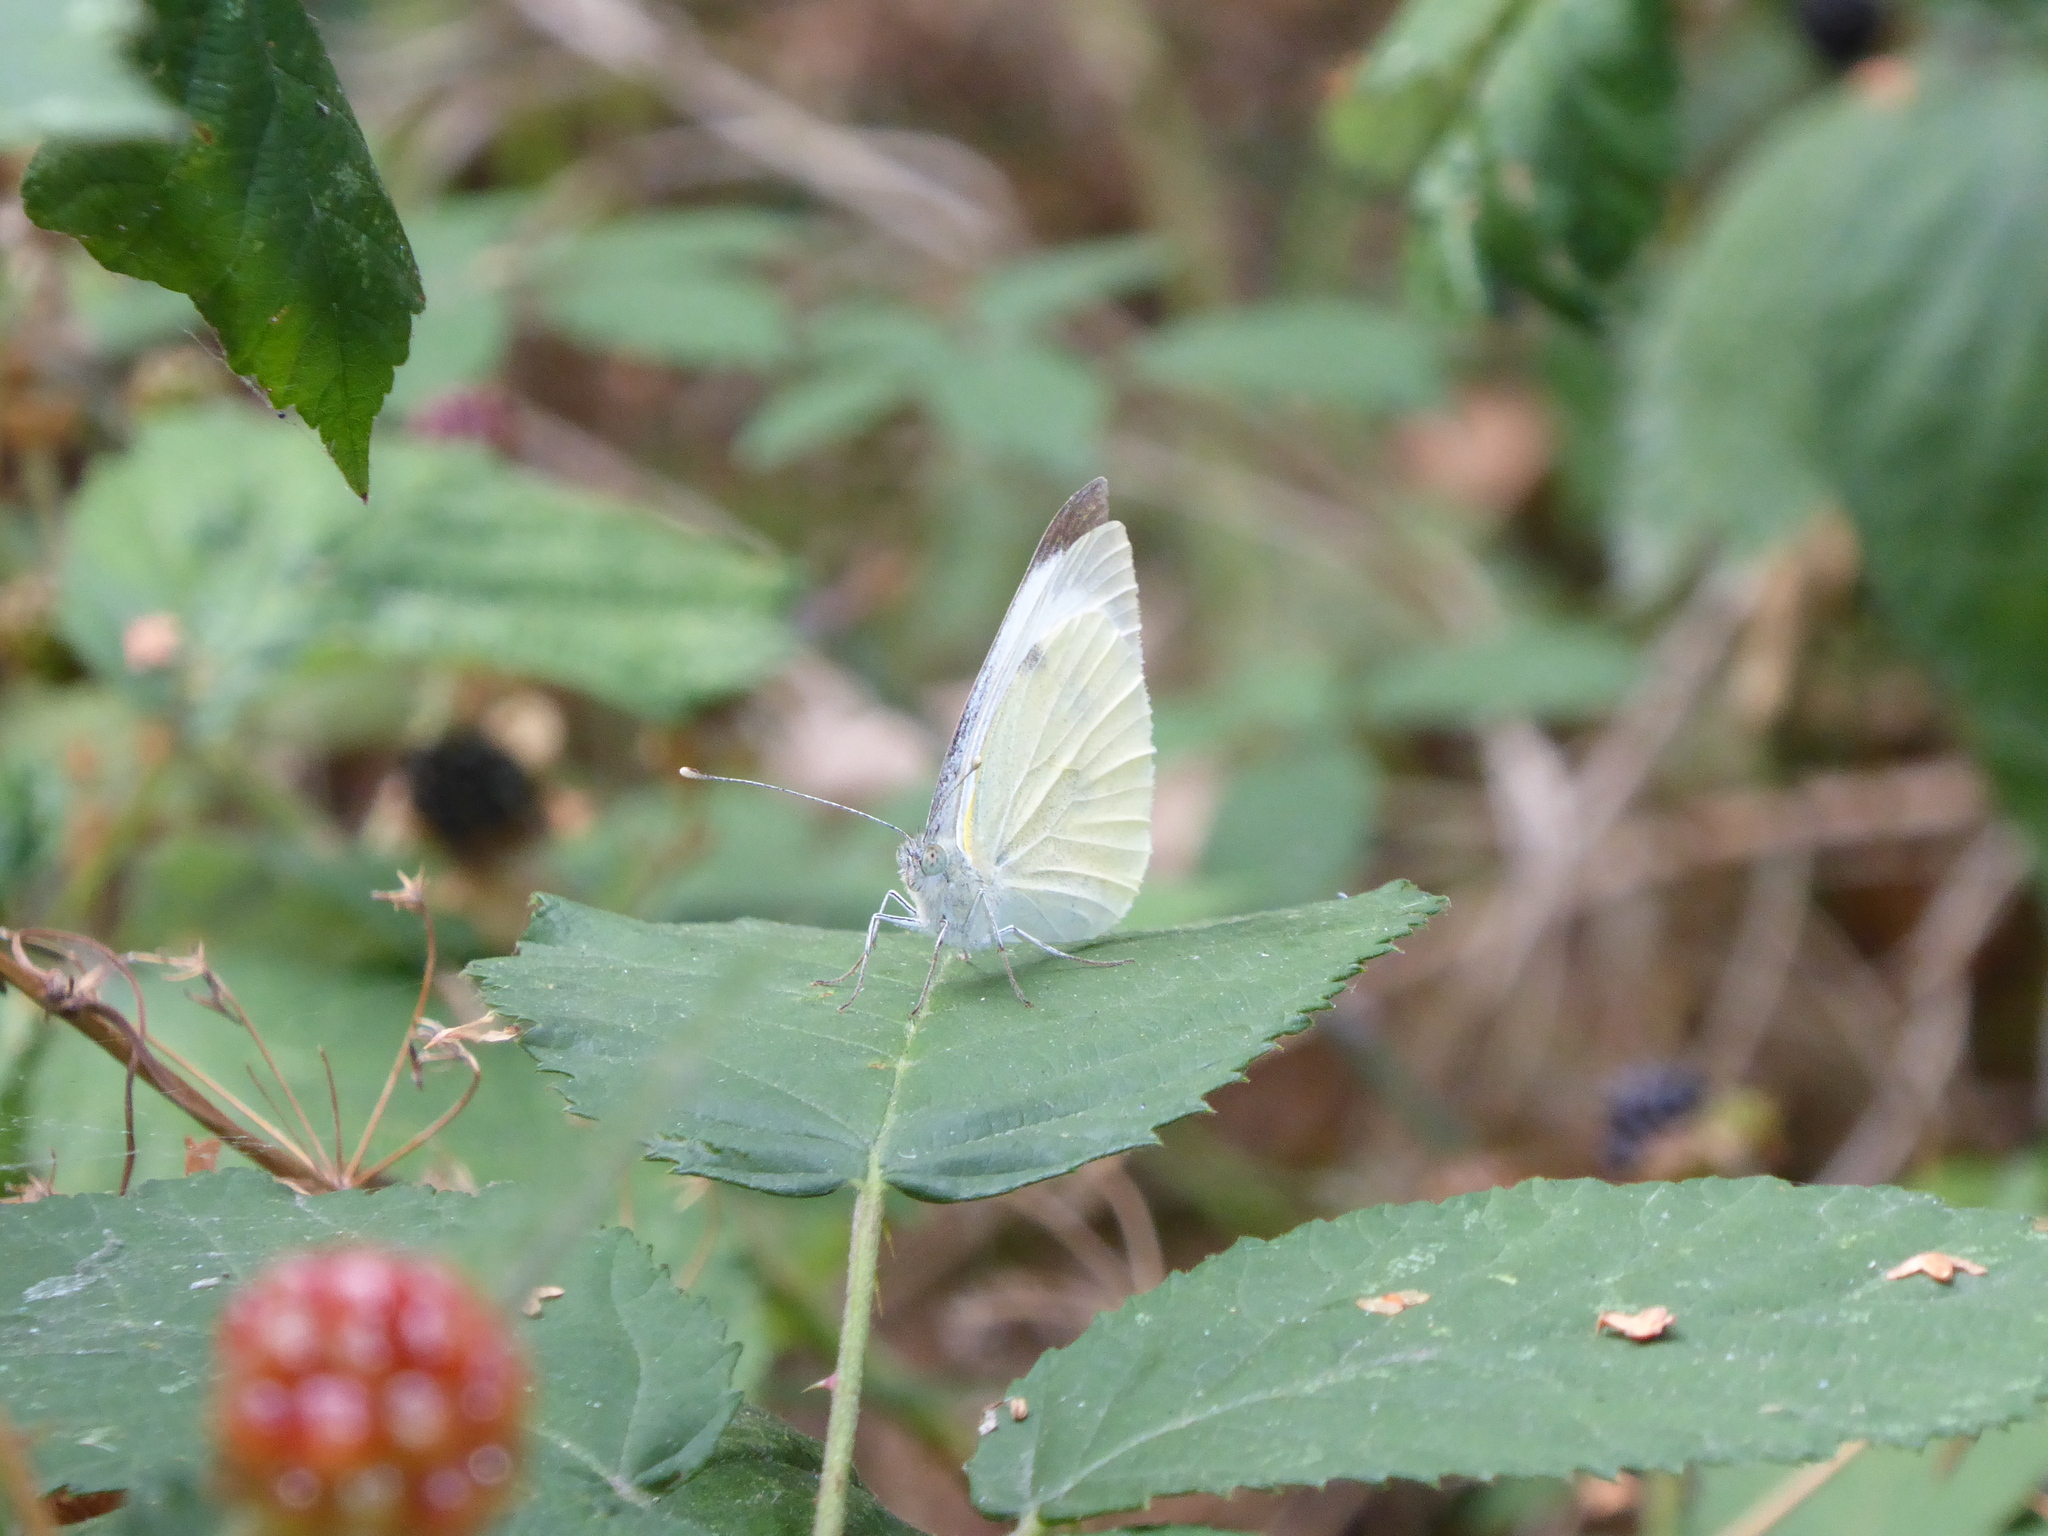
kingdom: Animalia
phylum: Arthropoda
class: Insecta
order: Lepidoptera
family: Pieridae
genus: Pieris
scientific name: Pieris brassicae
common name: Large white
